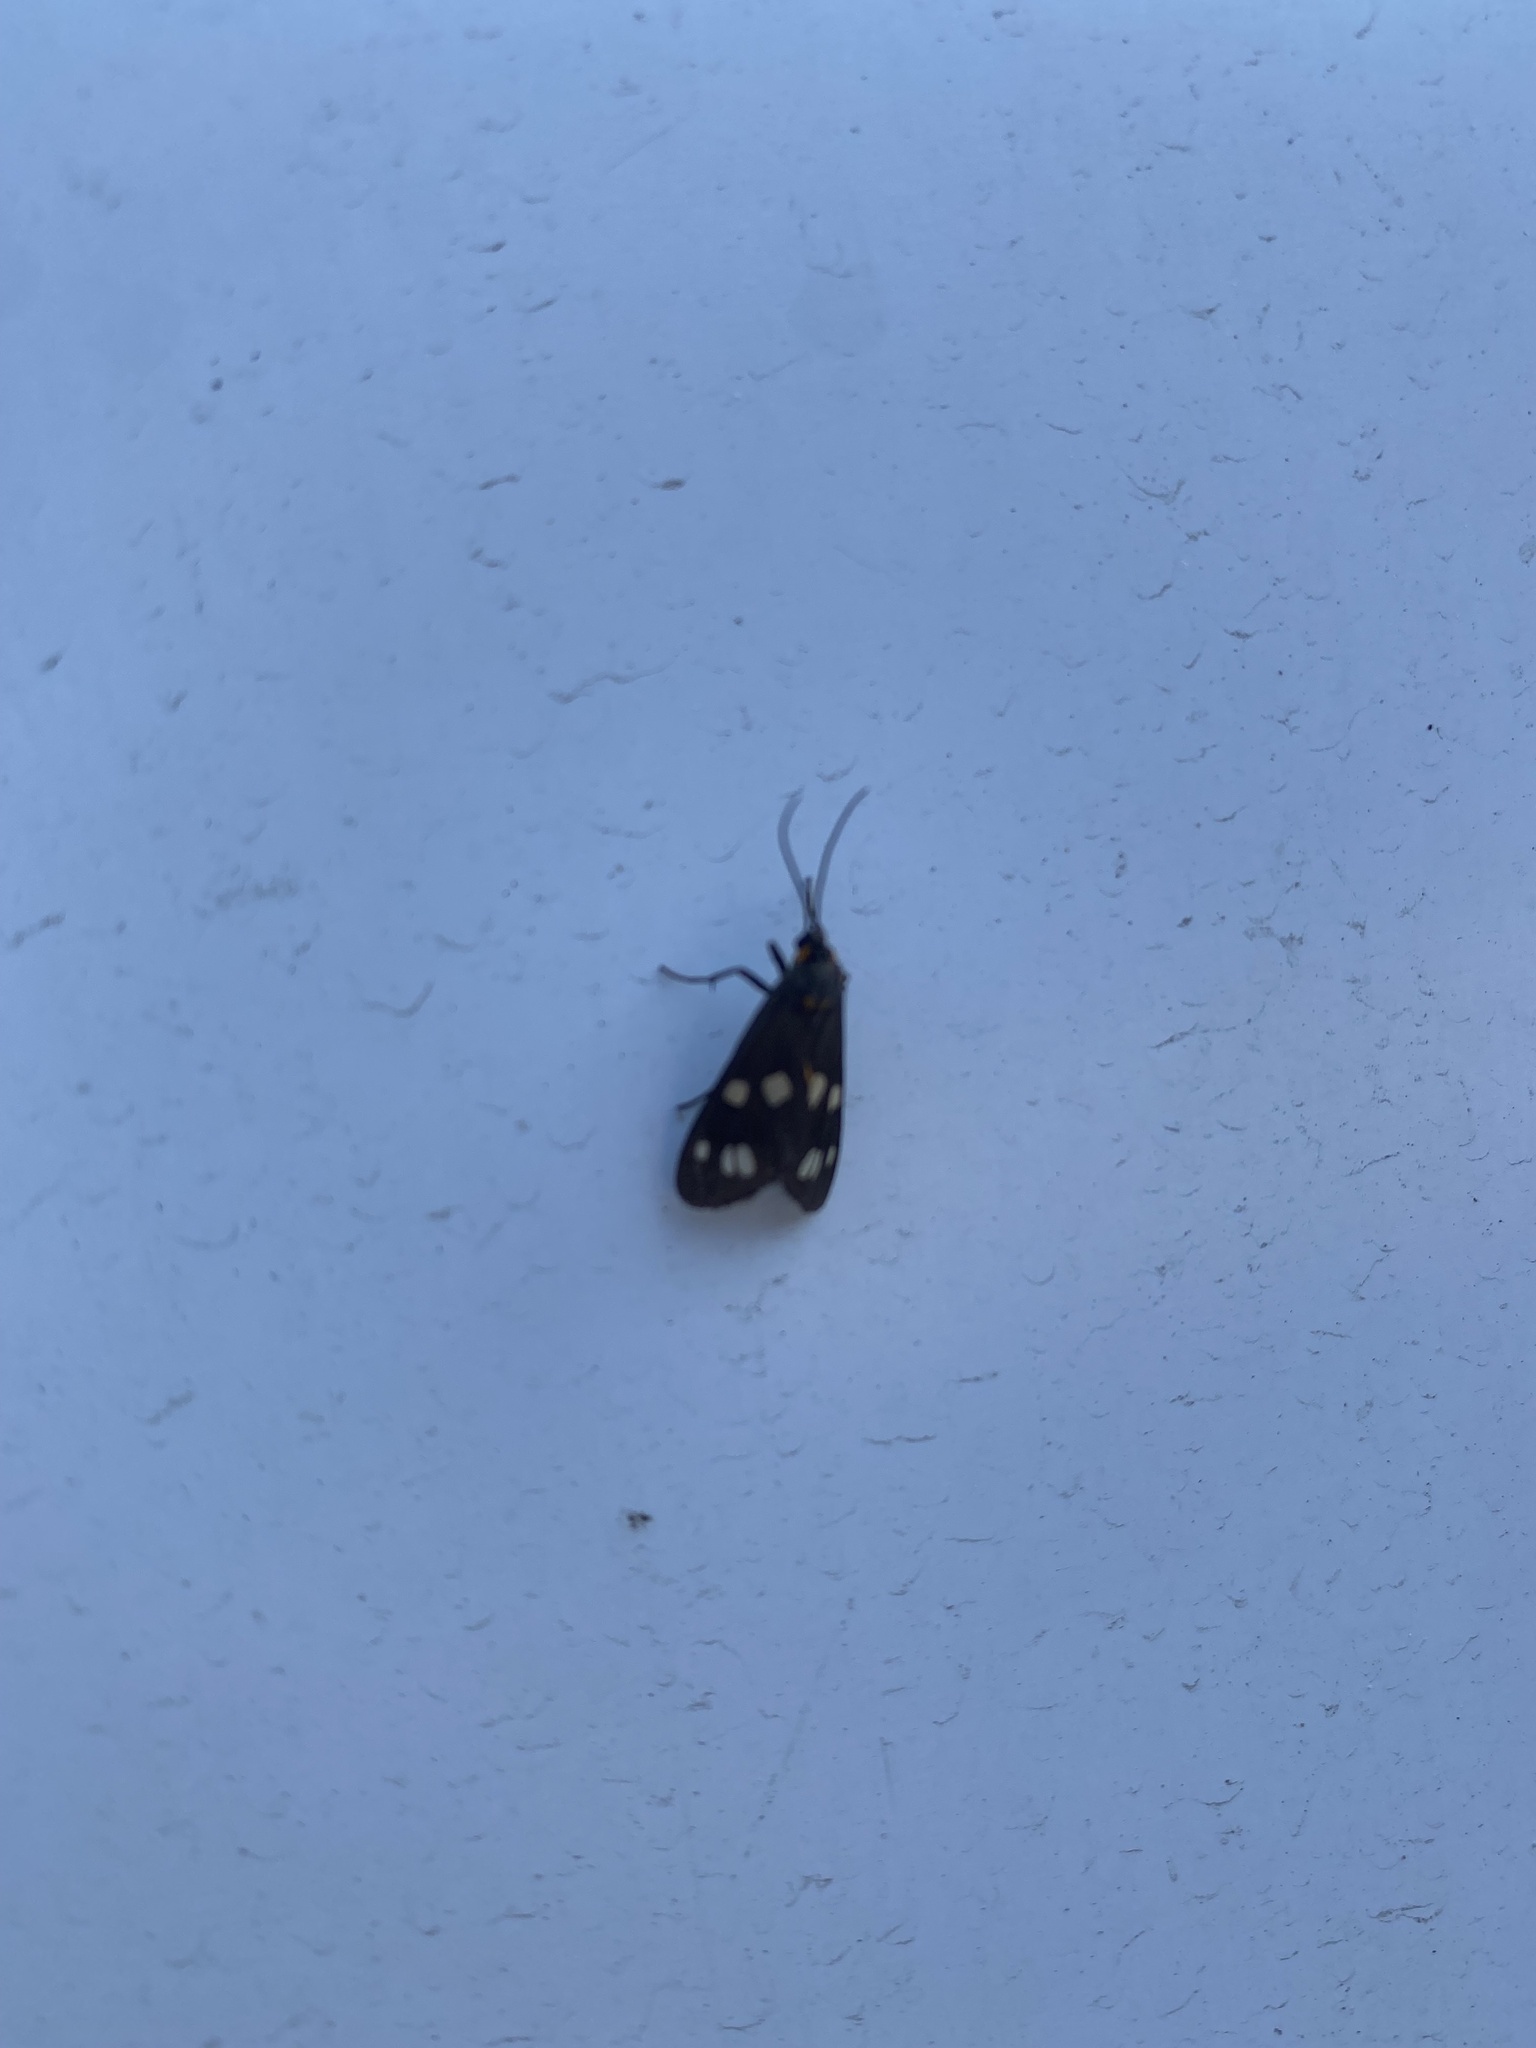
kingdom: Animalia
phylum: Arthropoda
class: Insecta
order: Lepidoptera
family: Erebidae
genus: Dysauxes
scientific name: Dysauxes punctata
